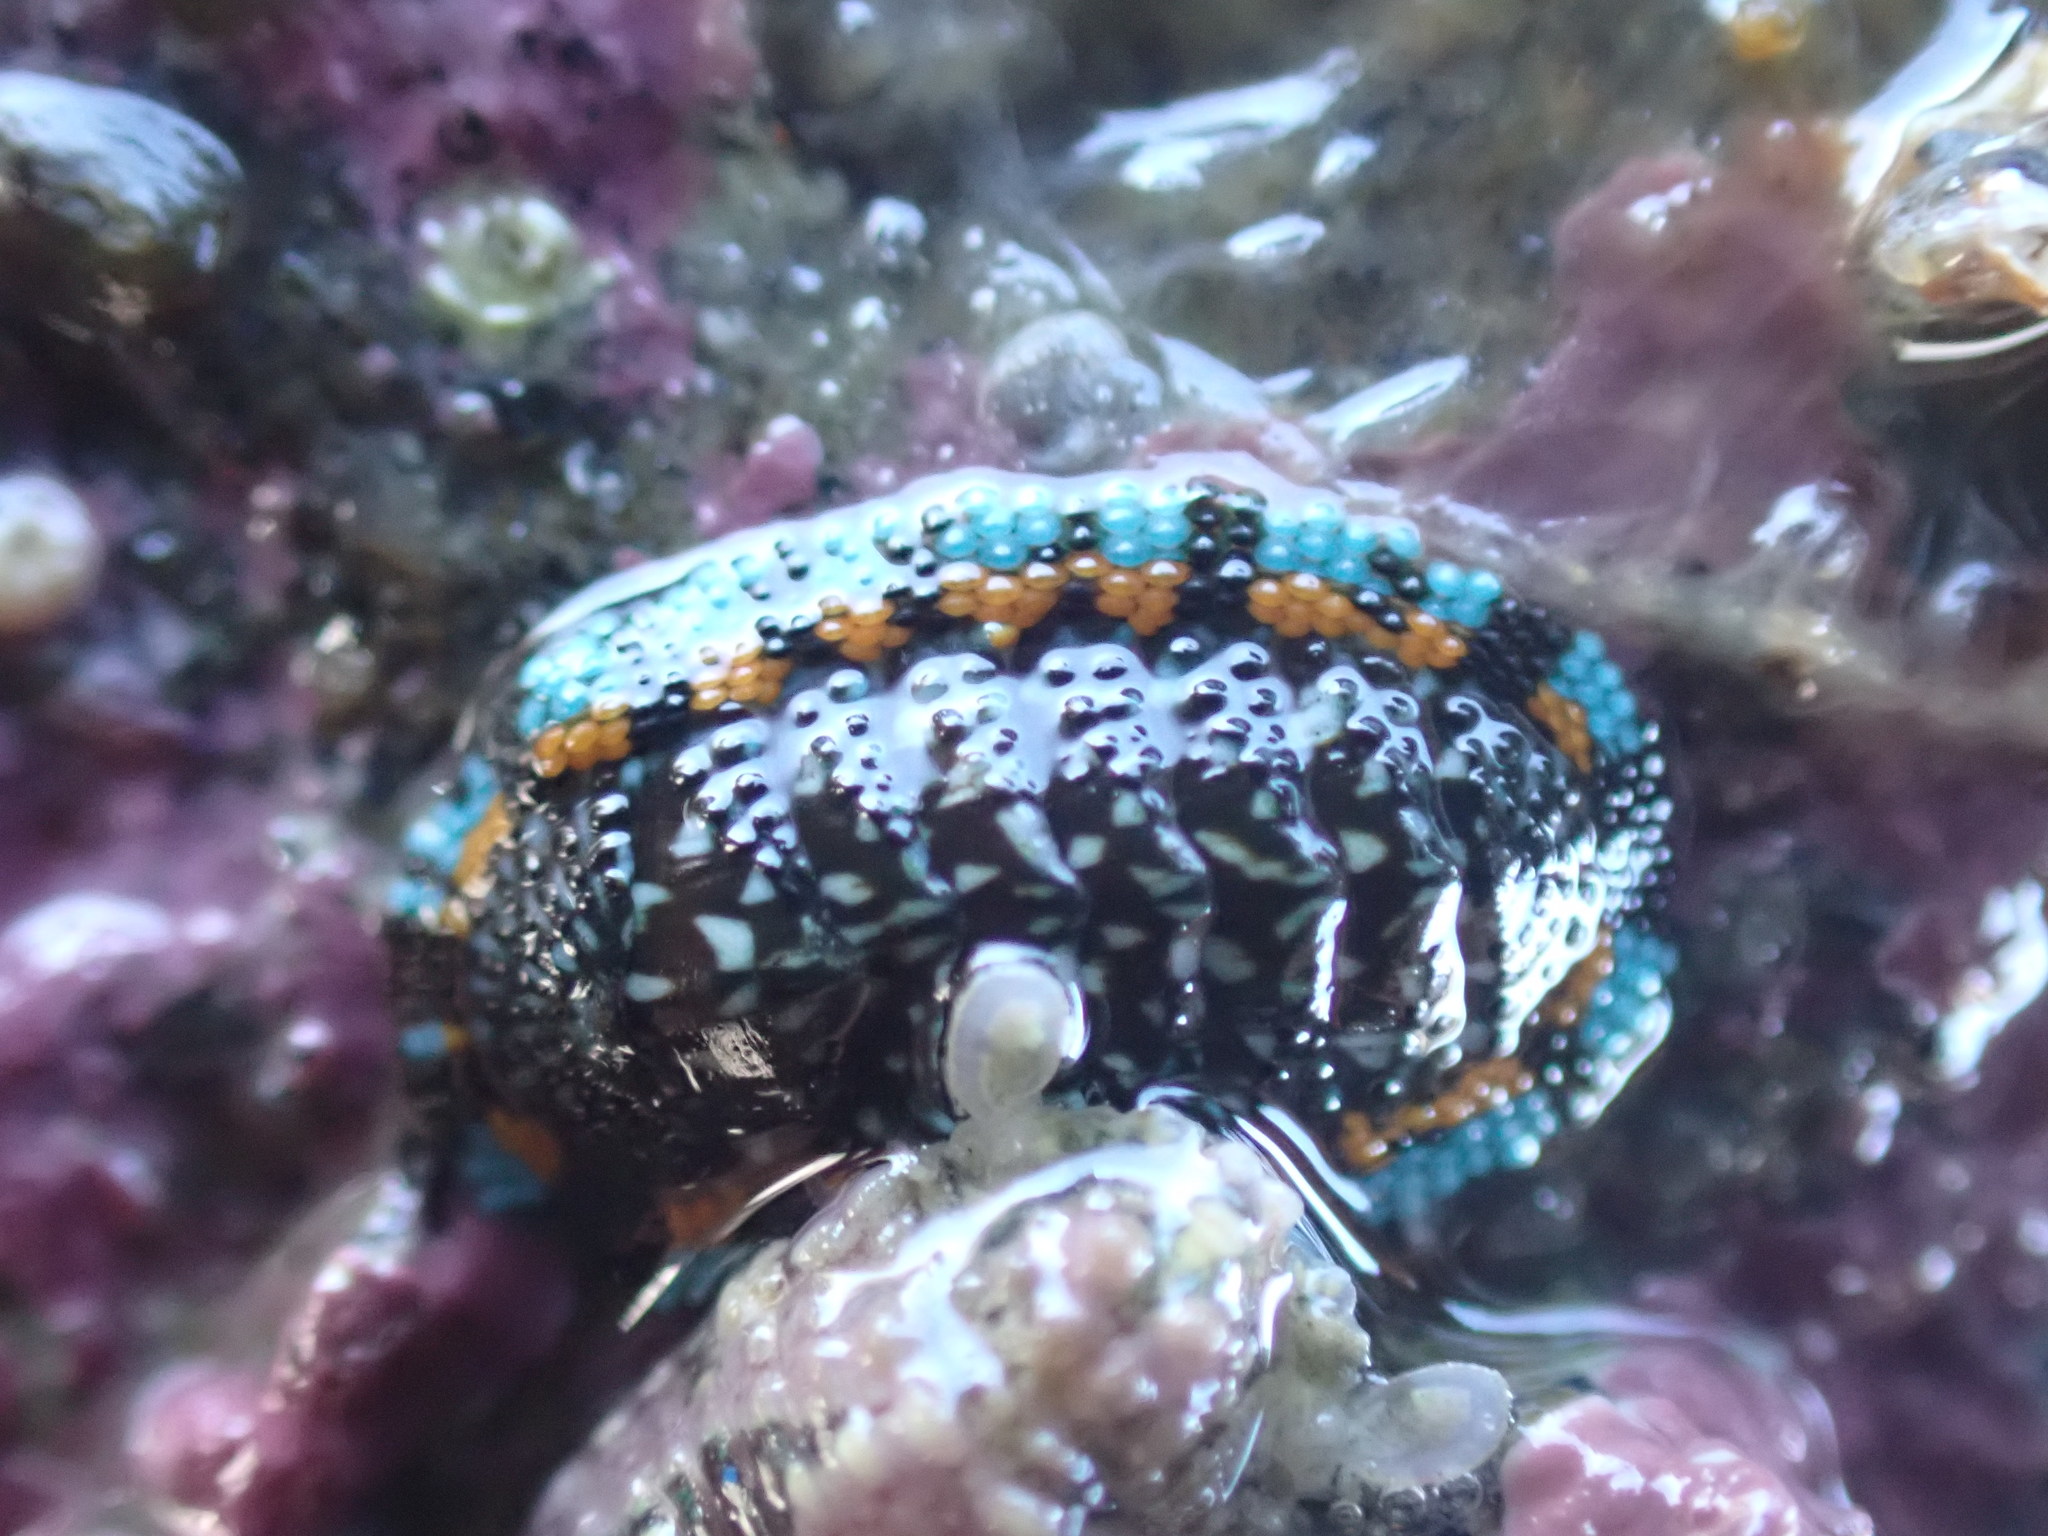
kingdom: Animalia
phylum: Mollusca
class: Polyplacophora
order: Chitonida
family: Chitonidae
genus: Sypharochiton
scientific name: Sypharochiton sinclairi
